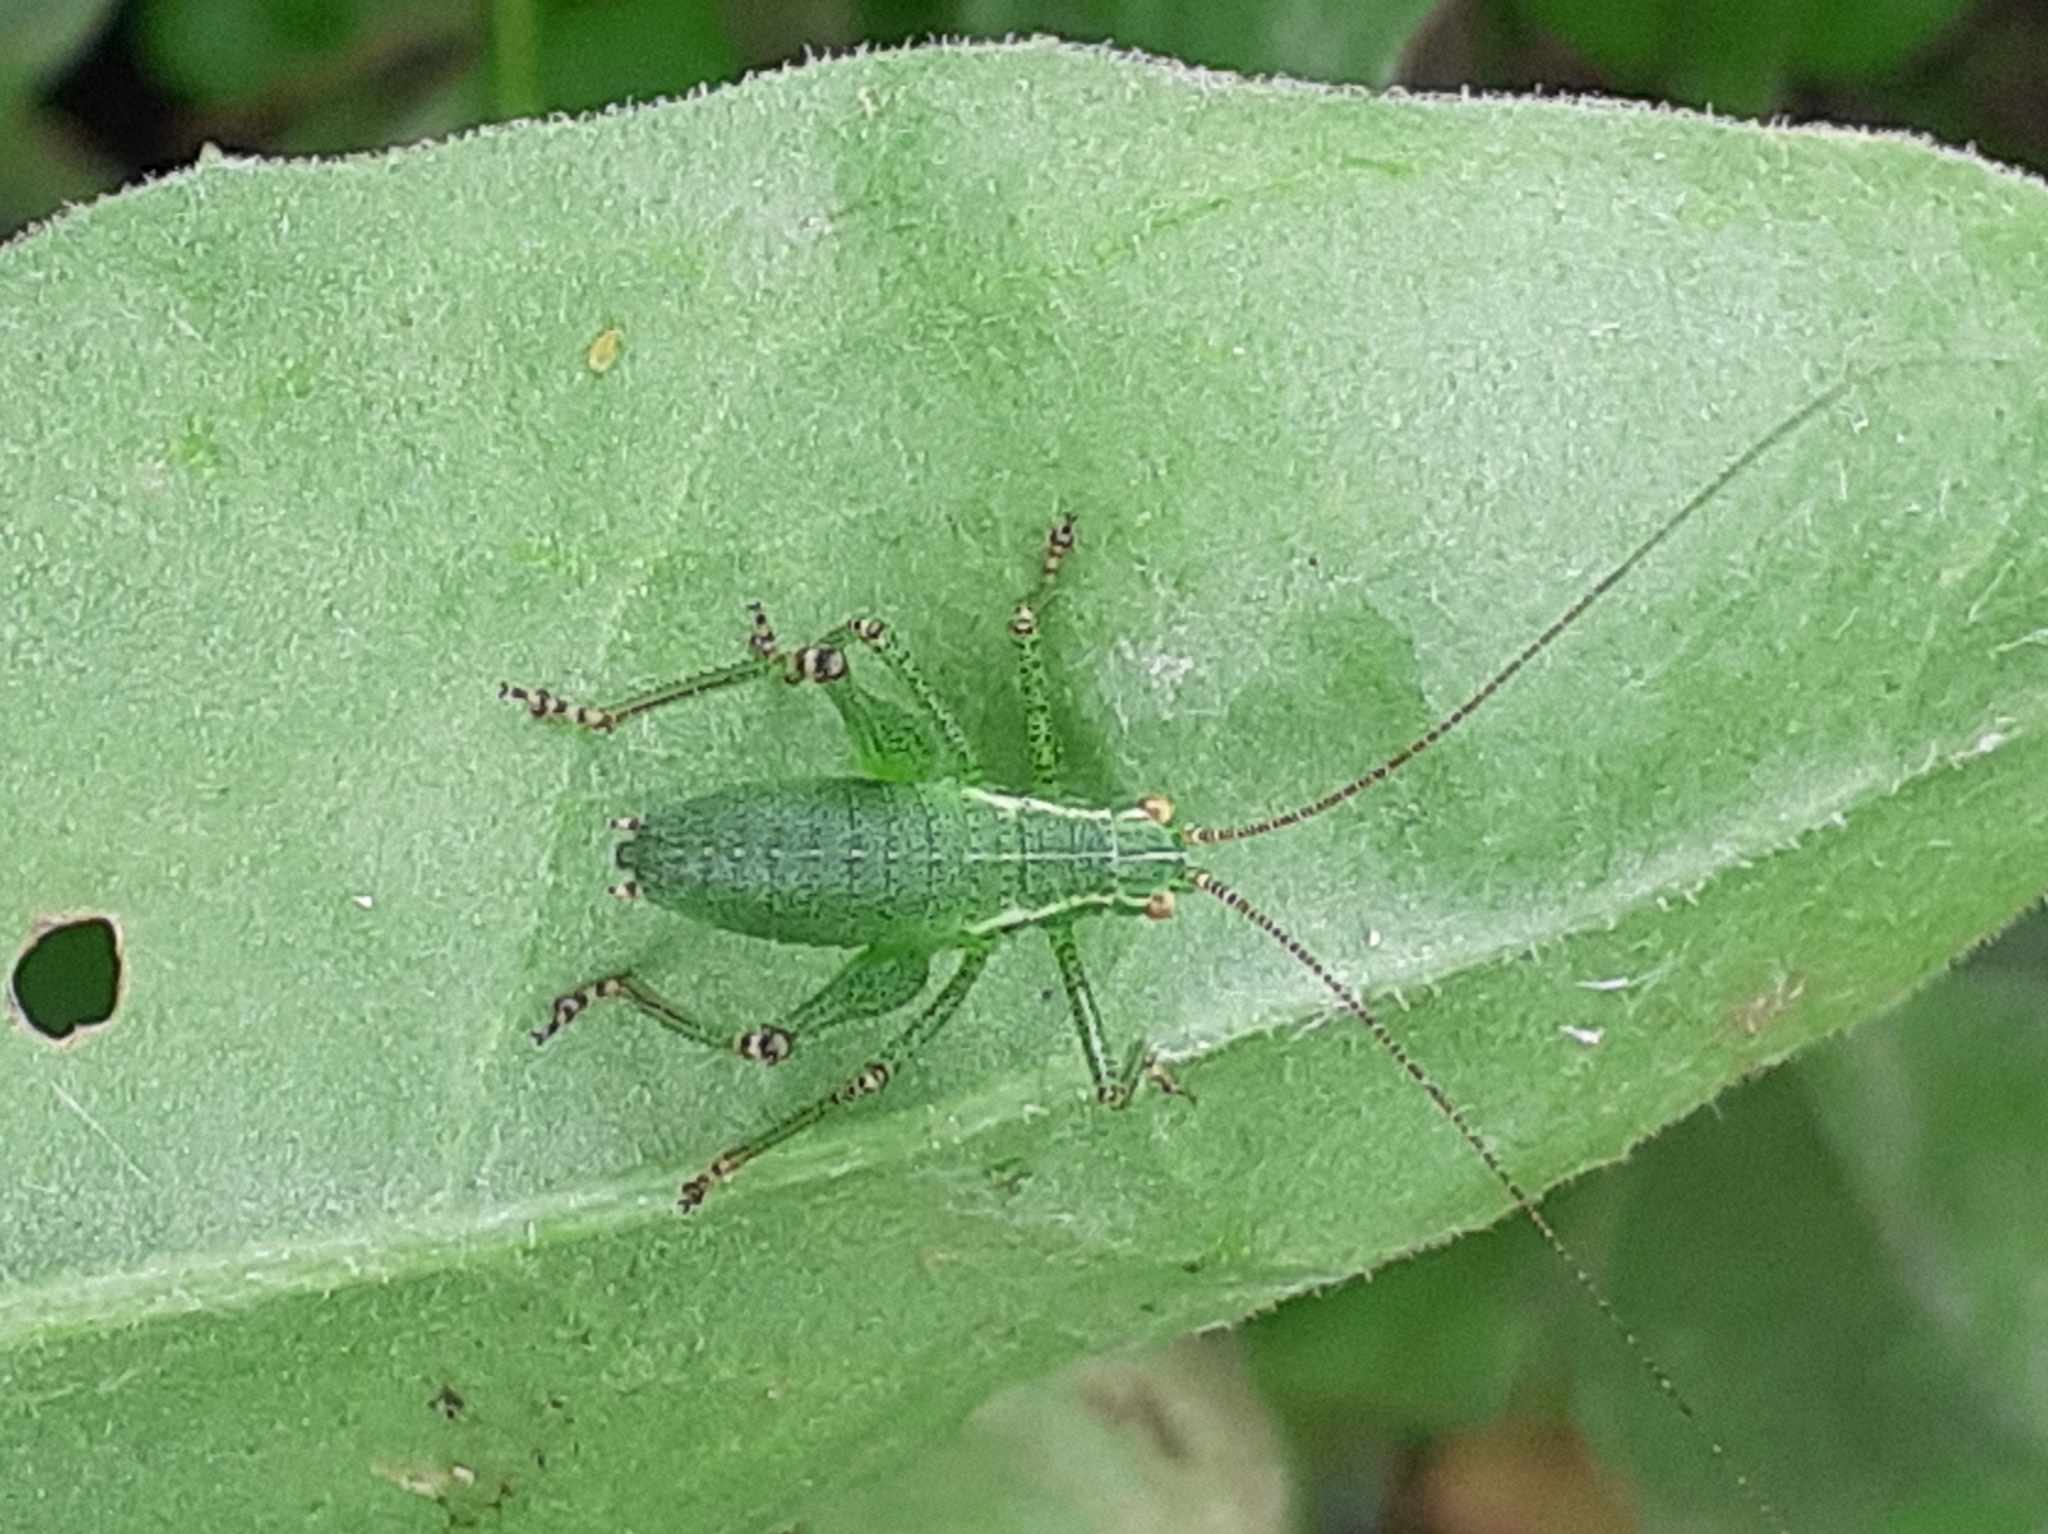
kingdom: Animalia
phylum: Arthropoda
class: Insecta
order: Orthoptera
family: Tettigoniidae
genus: Leptophyes
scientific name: Leptophyes punctatissima
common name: Speckled bush-cricket
